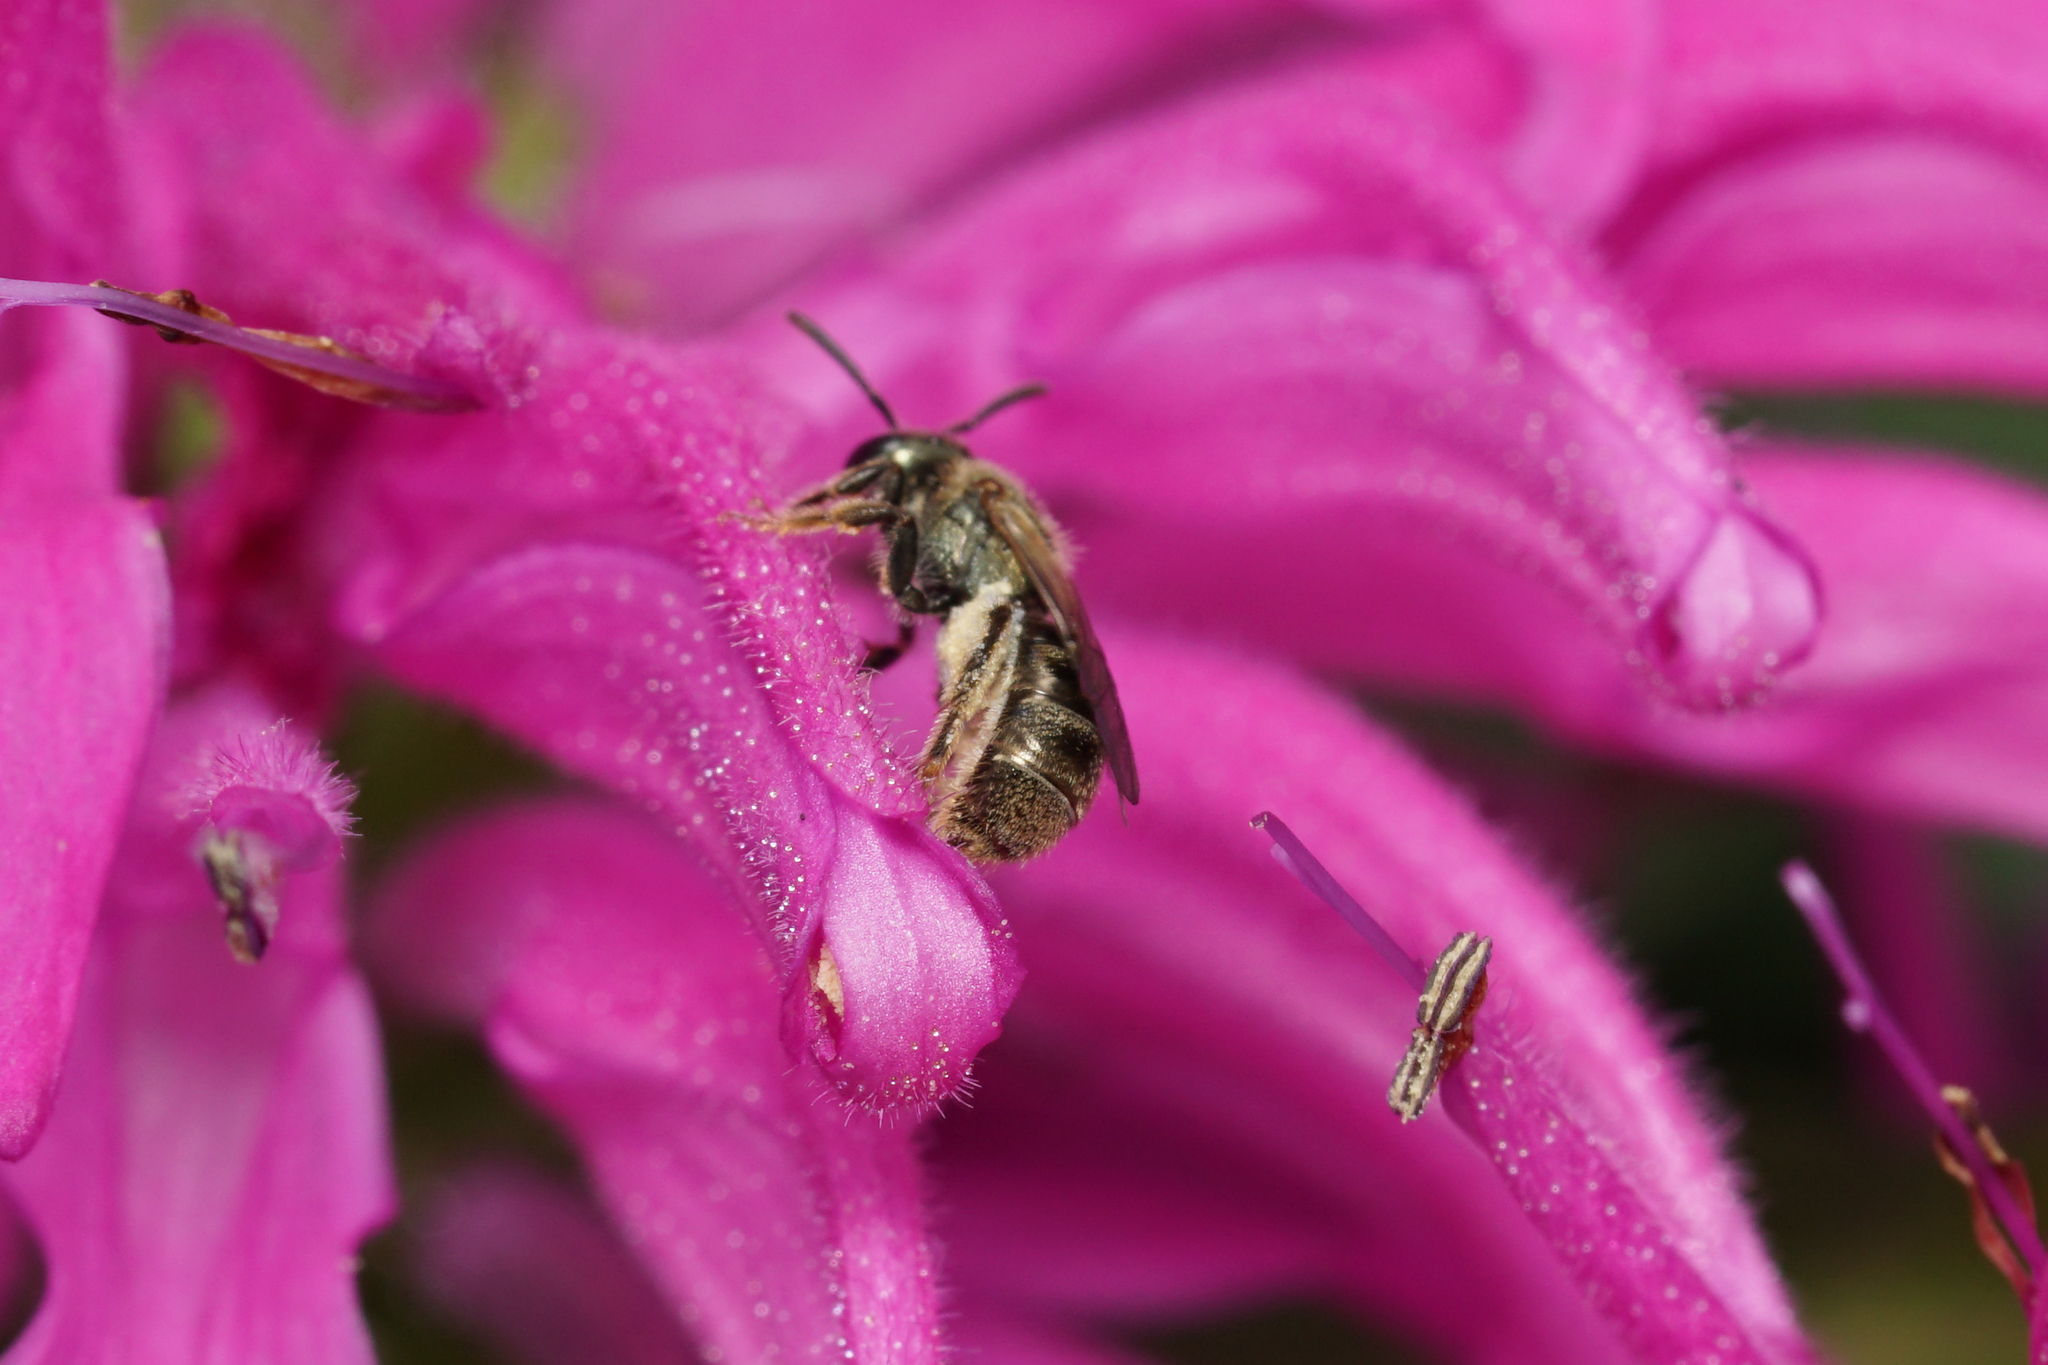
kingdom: Animalia
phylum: Arthropoda
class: Insecta
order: Hymenoptera
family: Halictidae
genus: Dialictus
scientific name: Dialictus
